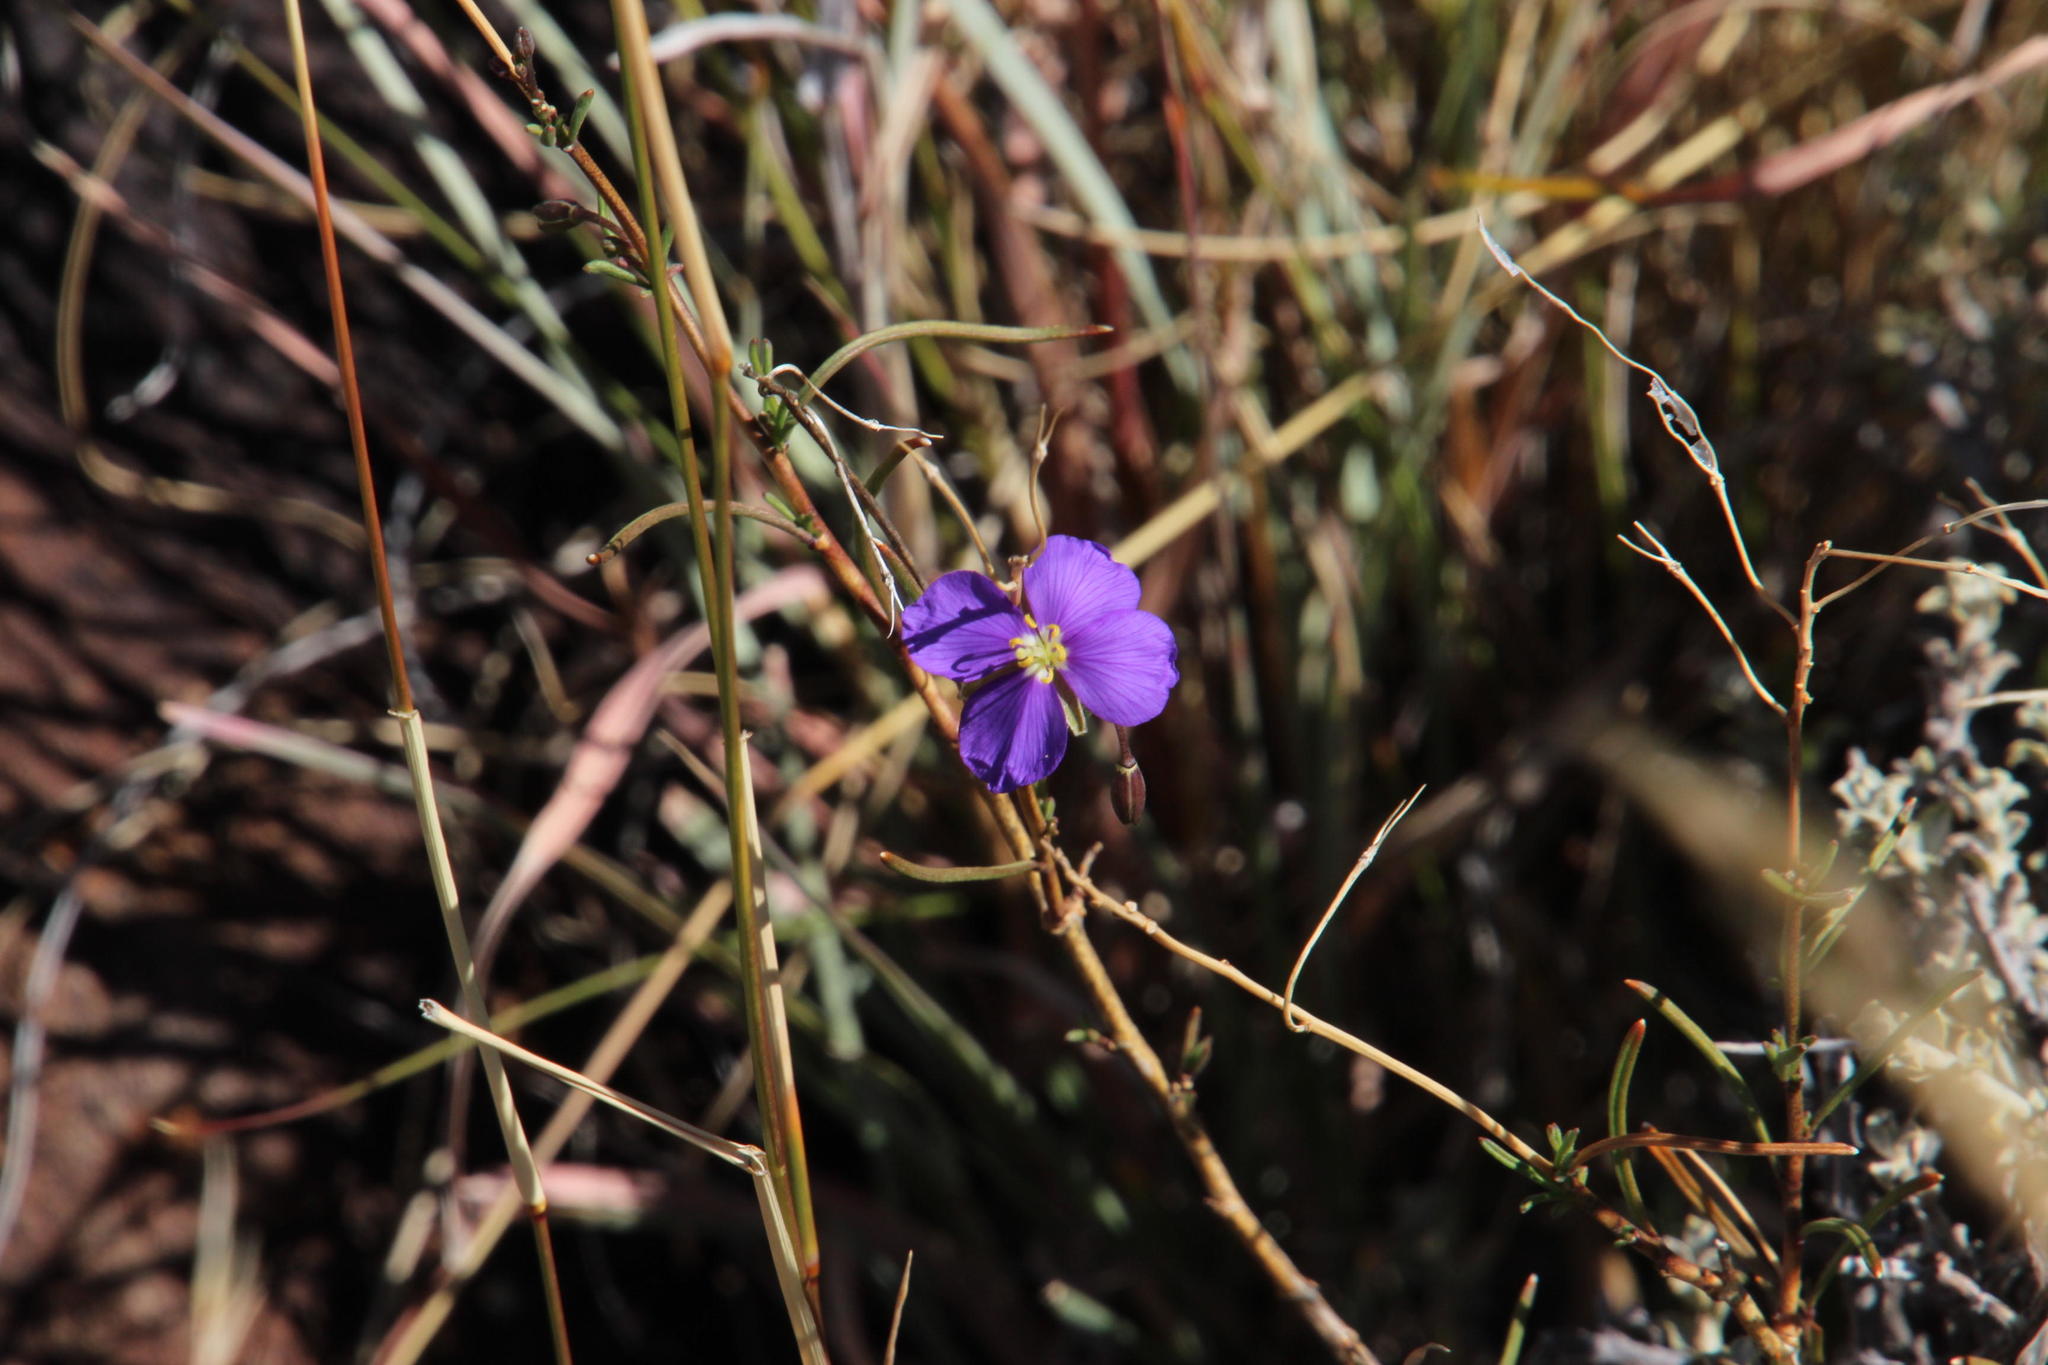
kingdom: Plantae
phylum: Tracheophyta
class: Magnoliopsida
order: Brassicales
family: Brassicaceae
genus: Heliophila
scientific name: Heliophila suavissima
